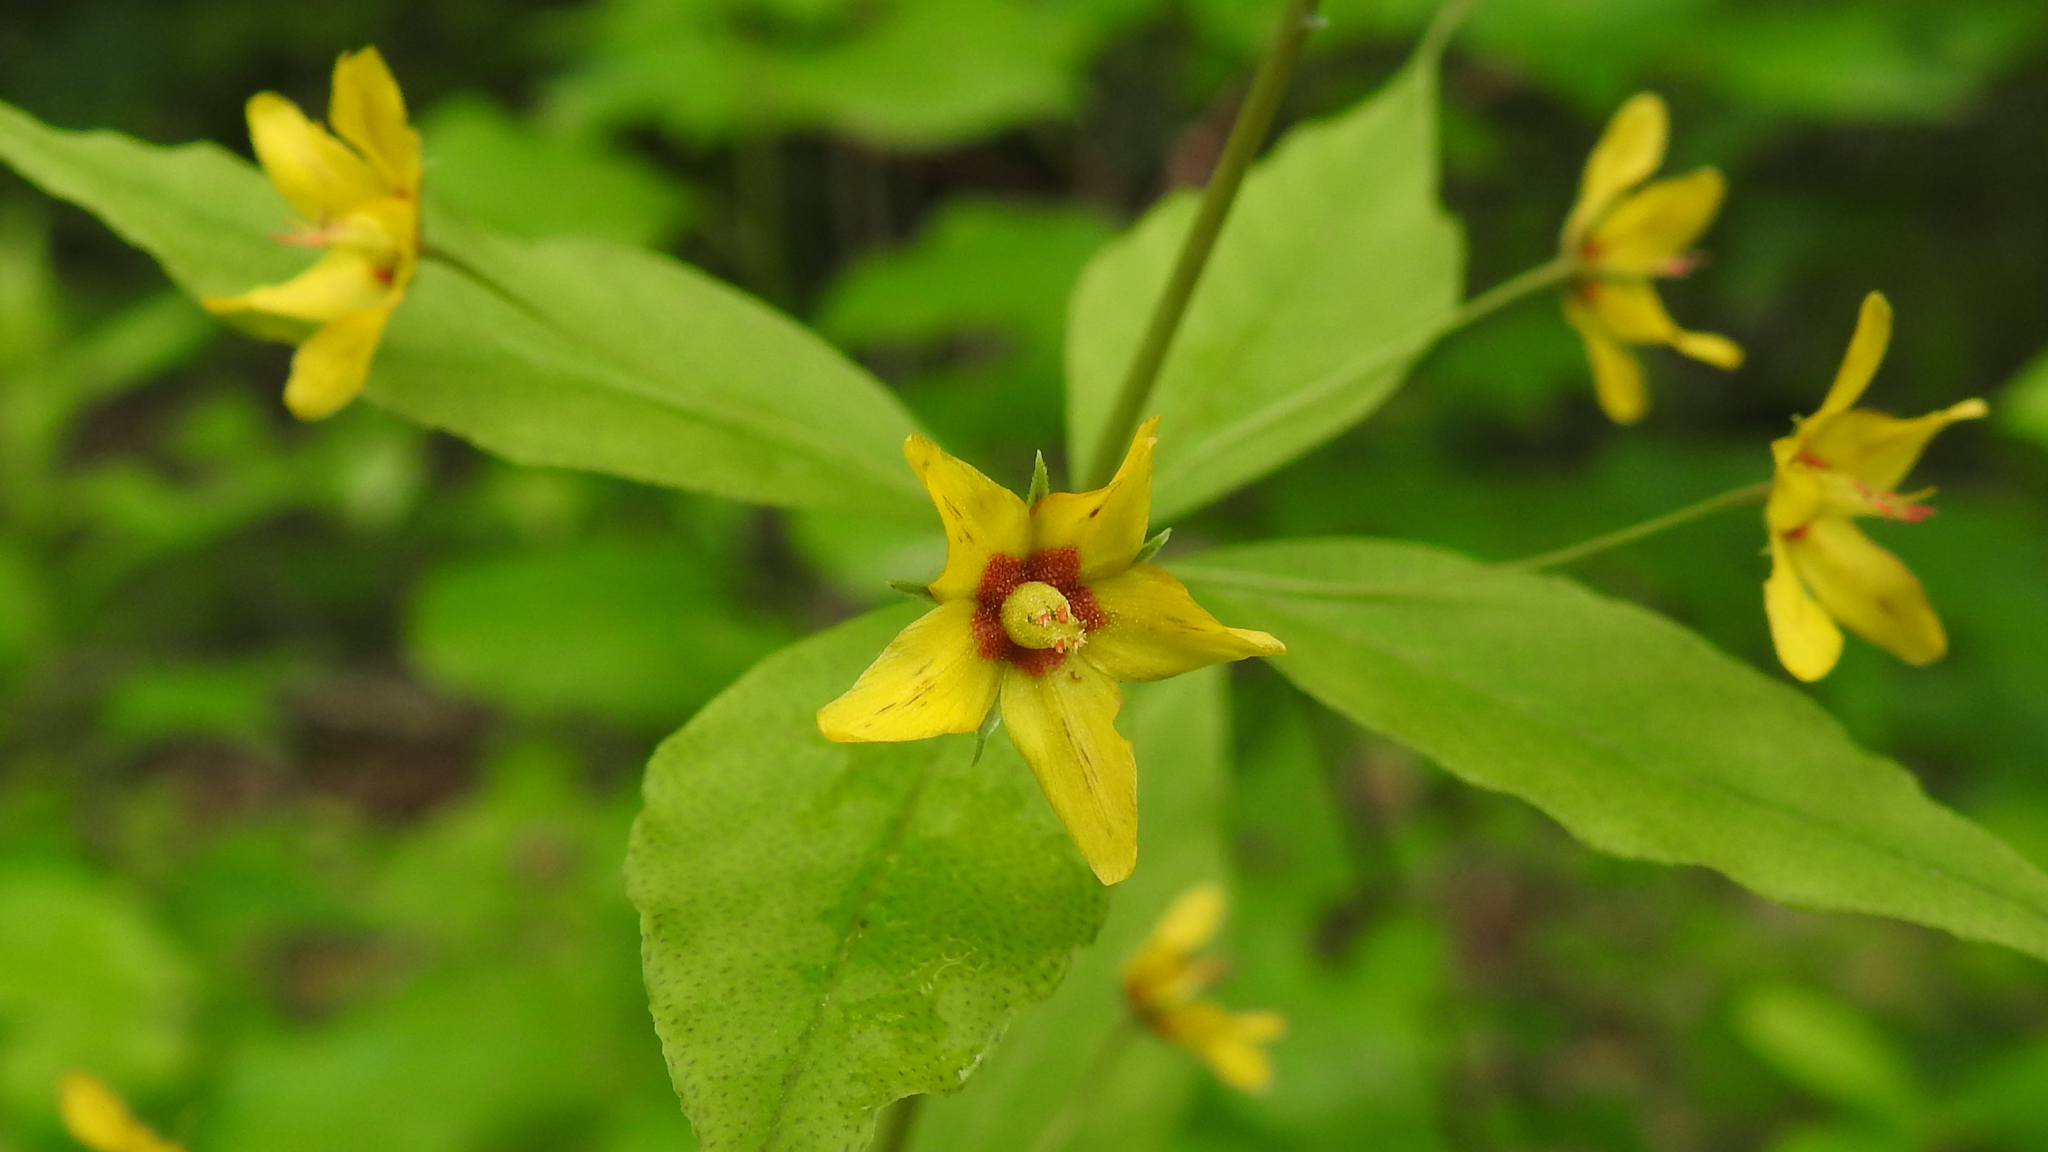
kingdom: Plantae
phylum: Tracheophyta
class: Magnoliopsida
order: Ericales
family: Primulaceae
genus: Lysimachia
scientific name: Lysimachia quadrifolia
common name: Whorled loosestrife
